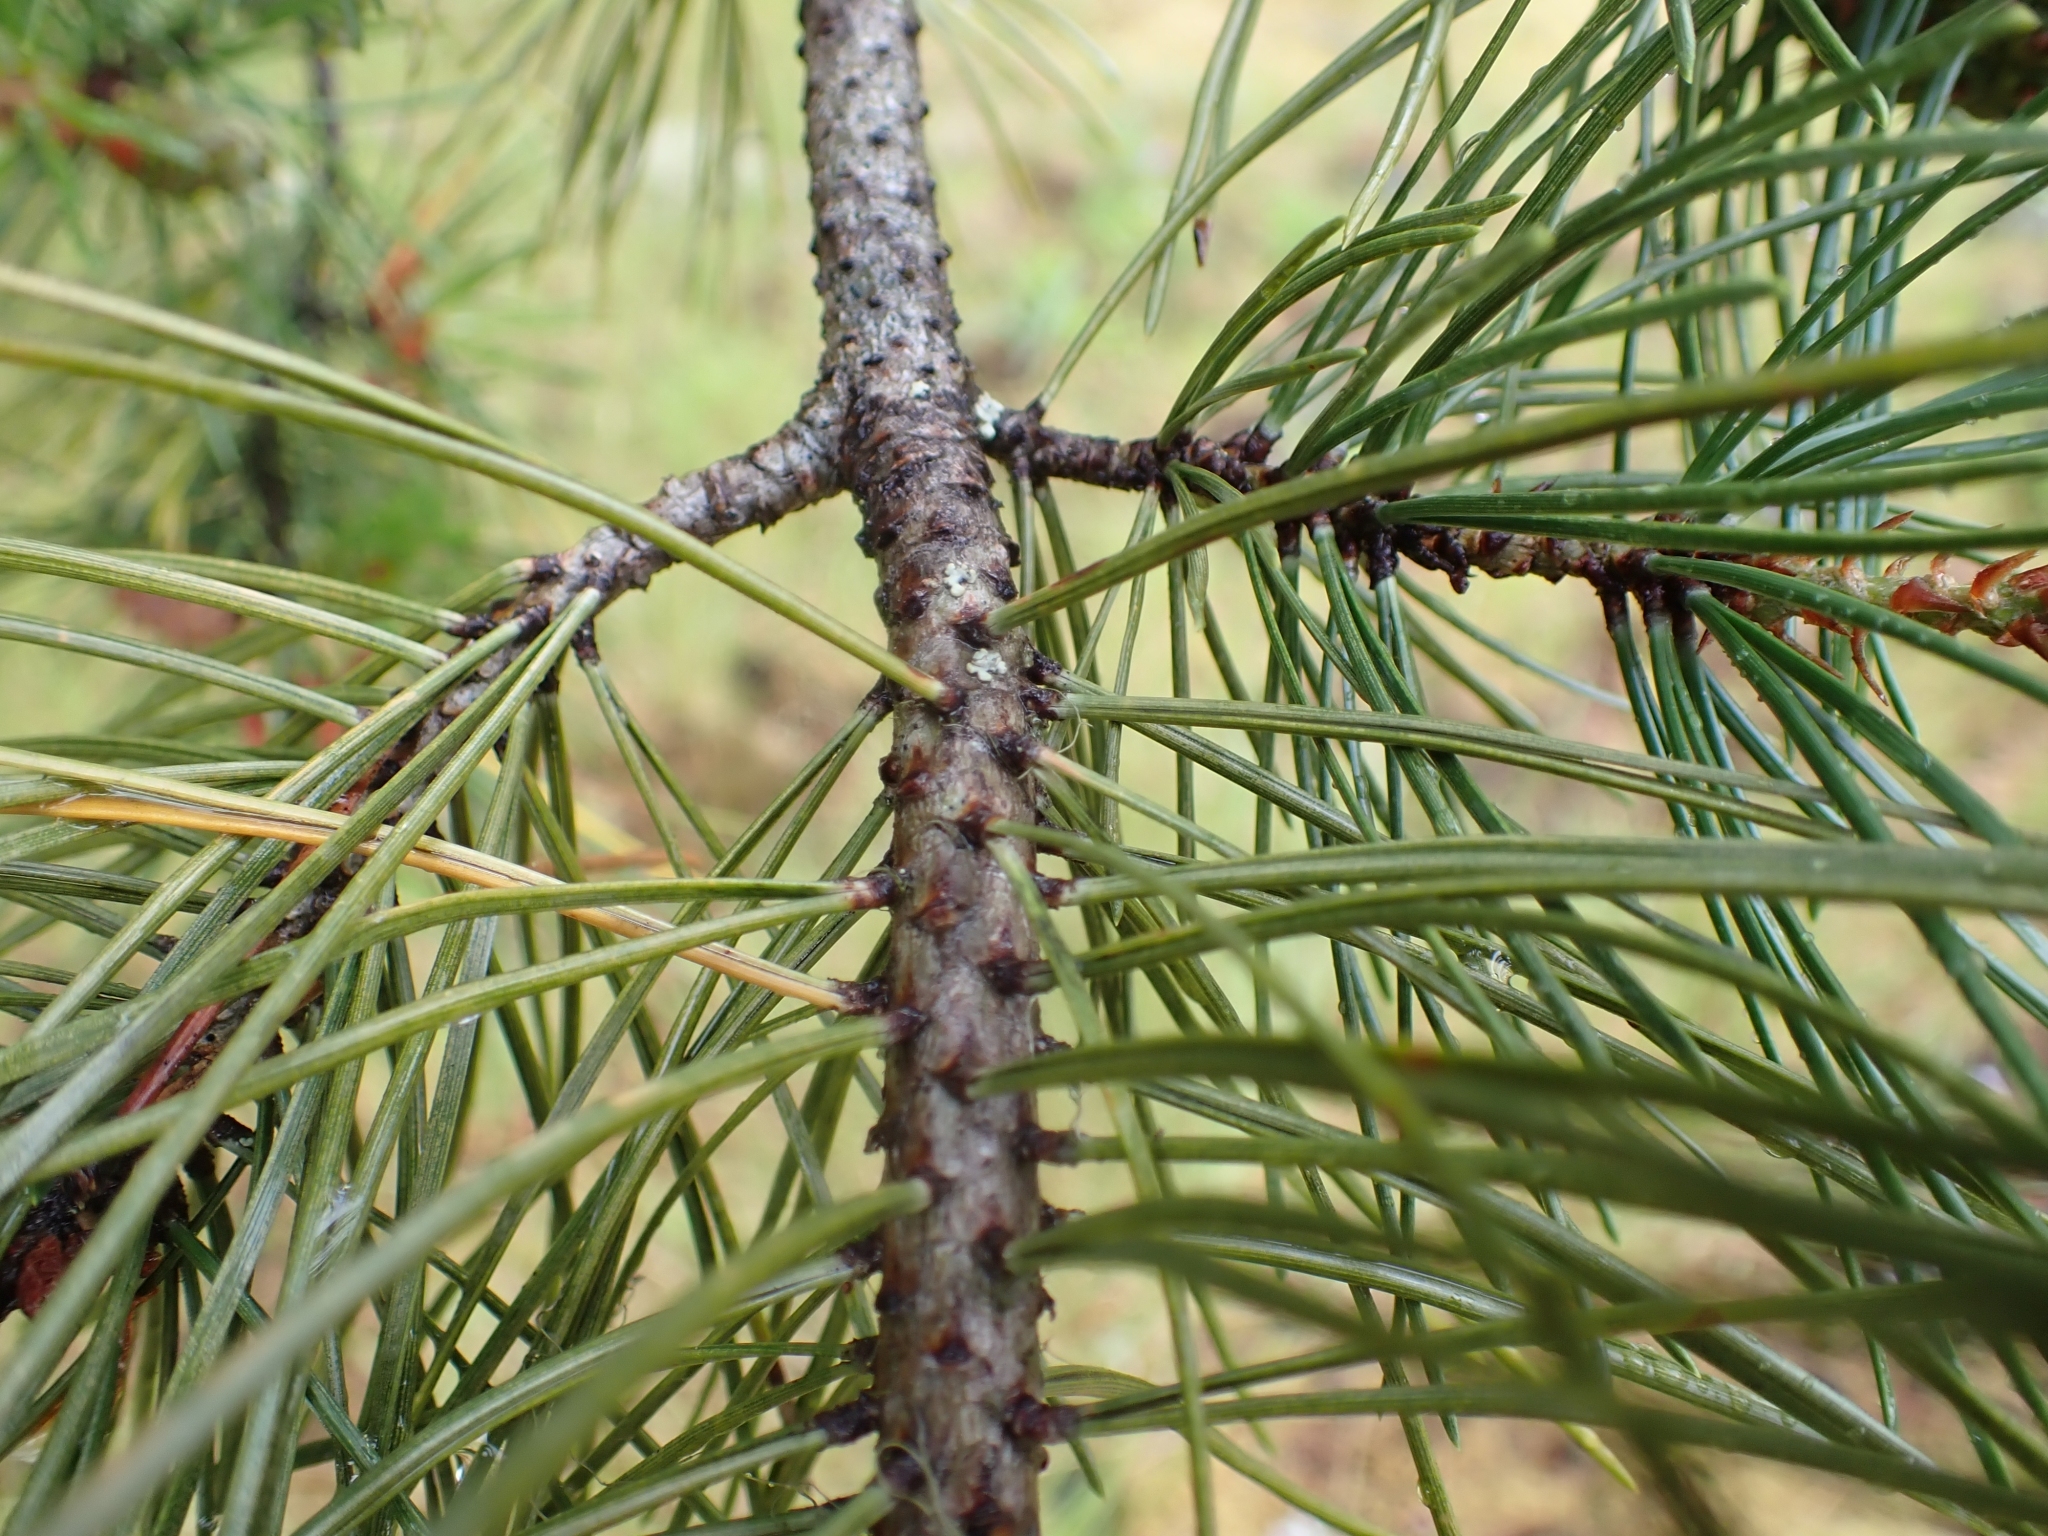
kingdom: Plantae
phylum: Tracheophyta
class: Pinopsida
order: Pinales
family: Pinaceae
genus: Pinus
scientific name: Pinus contorta
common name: Lodgepole pine
